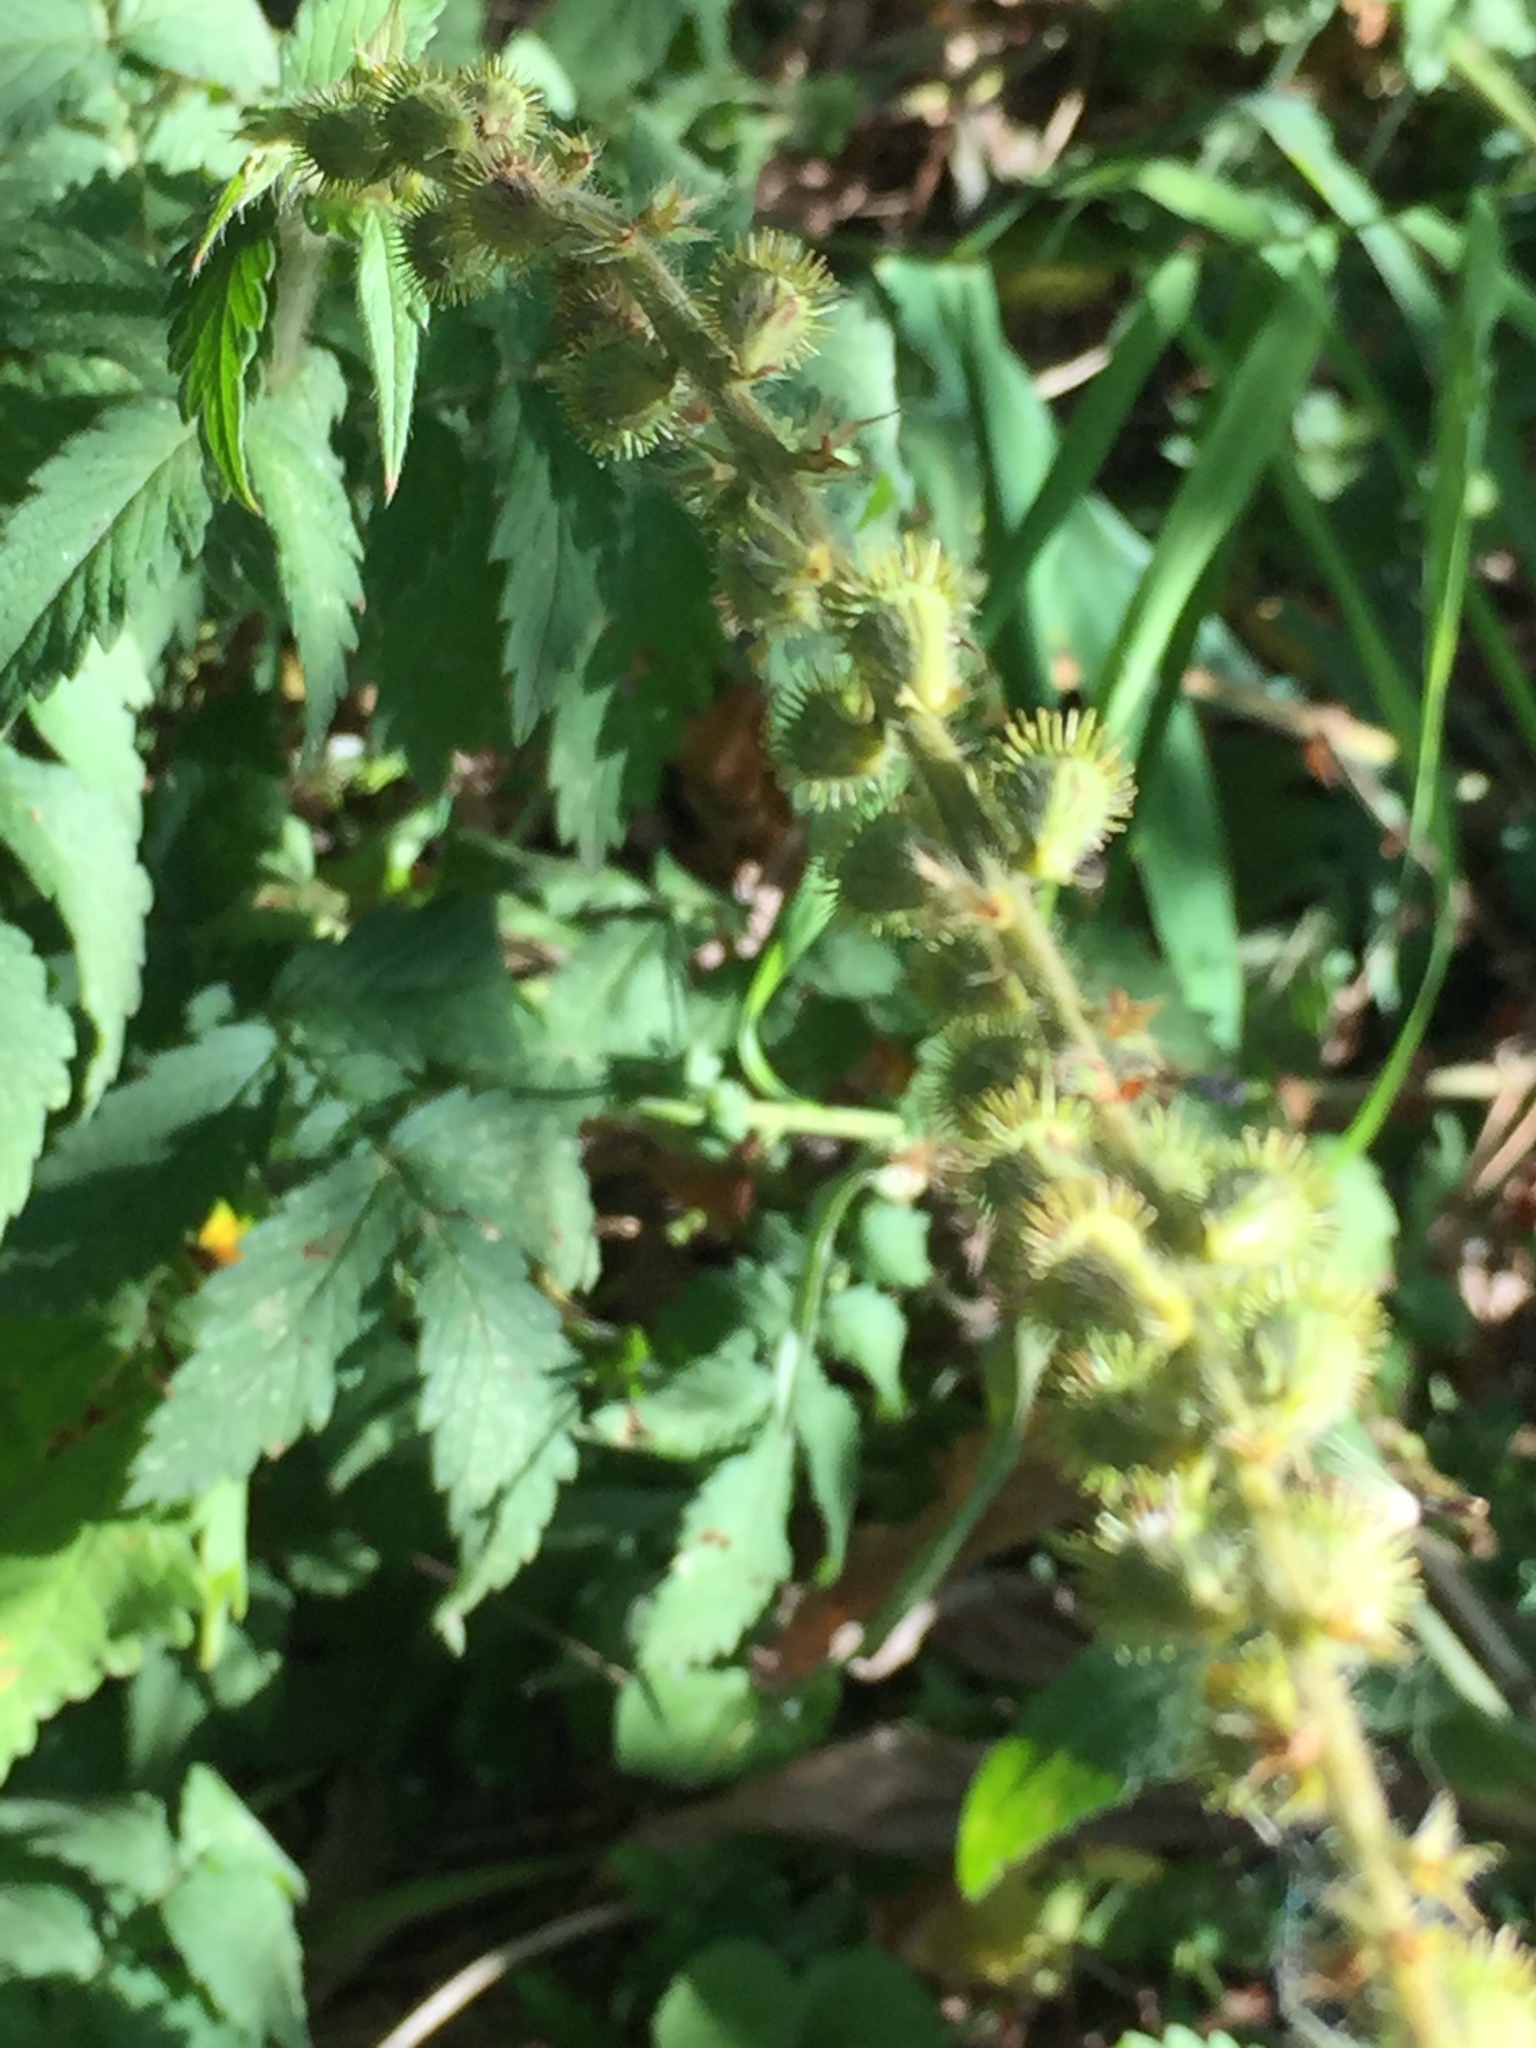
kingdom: Plantae
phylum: Tracheophyta
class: Magnoliopsida
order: Rosales
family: Rosaceae
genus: Agrimonia
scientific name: Agrimonia procera
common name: Fragrant agrimony
